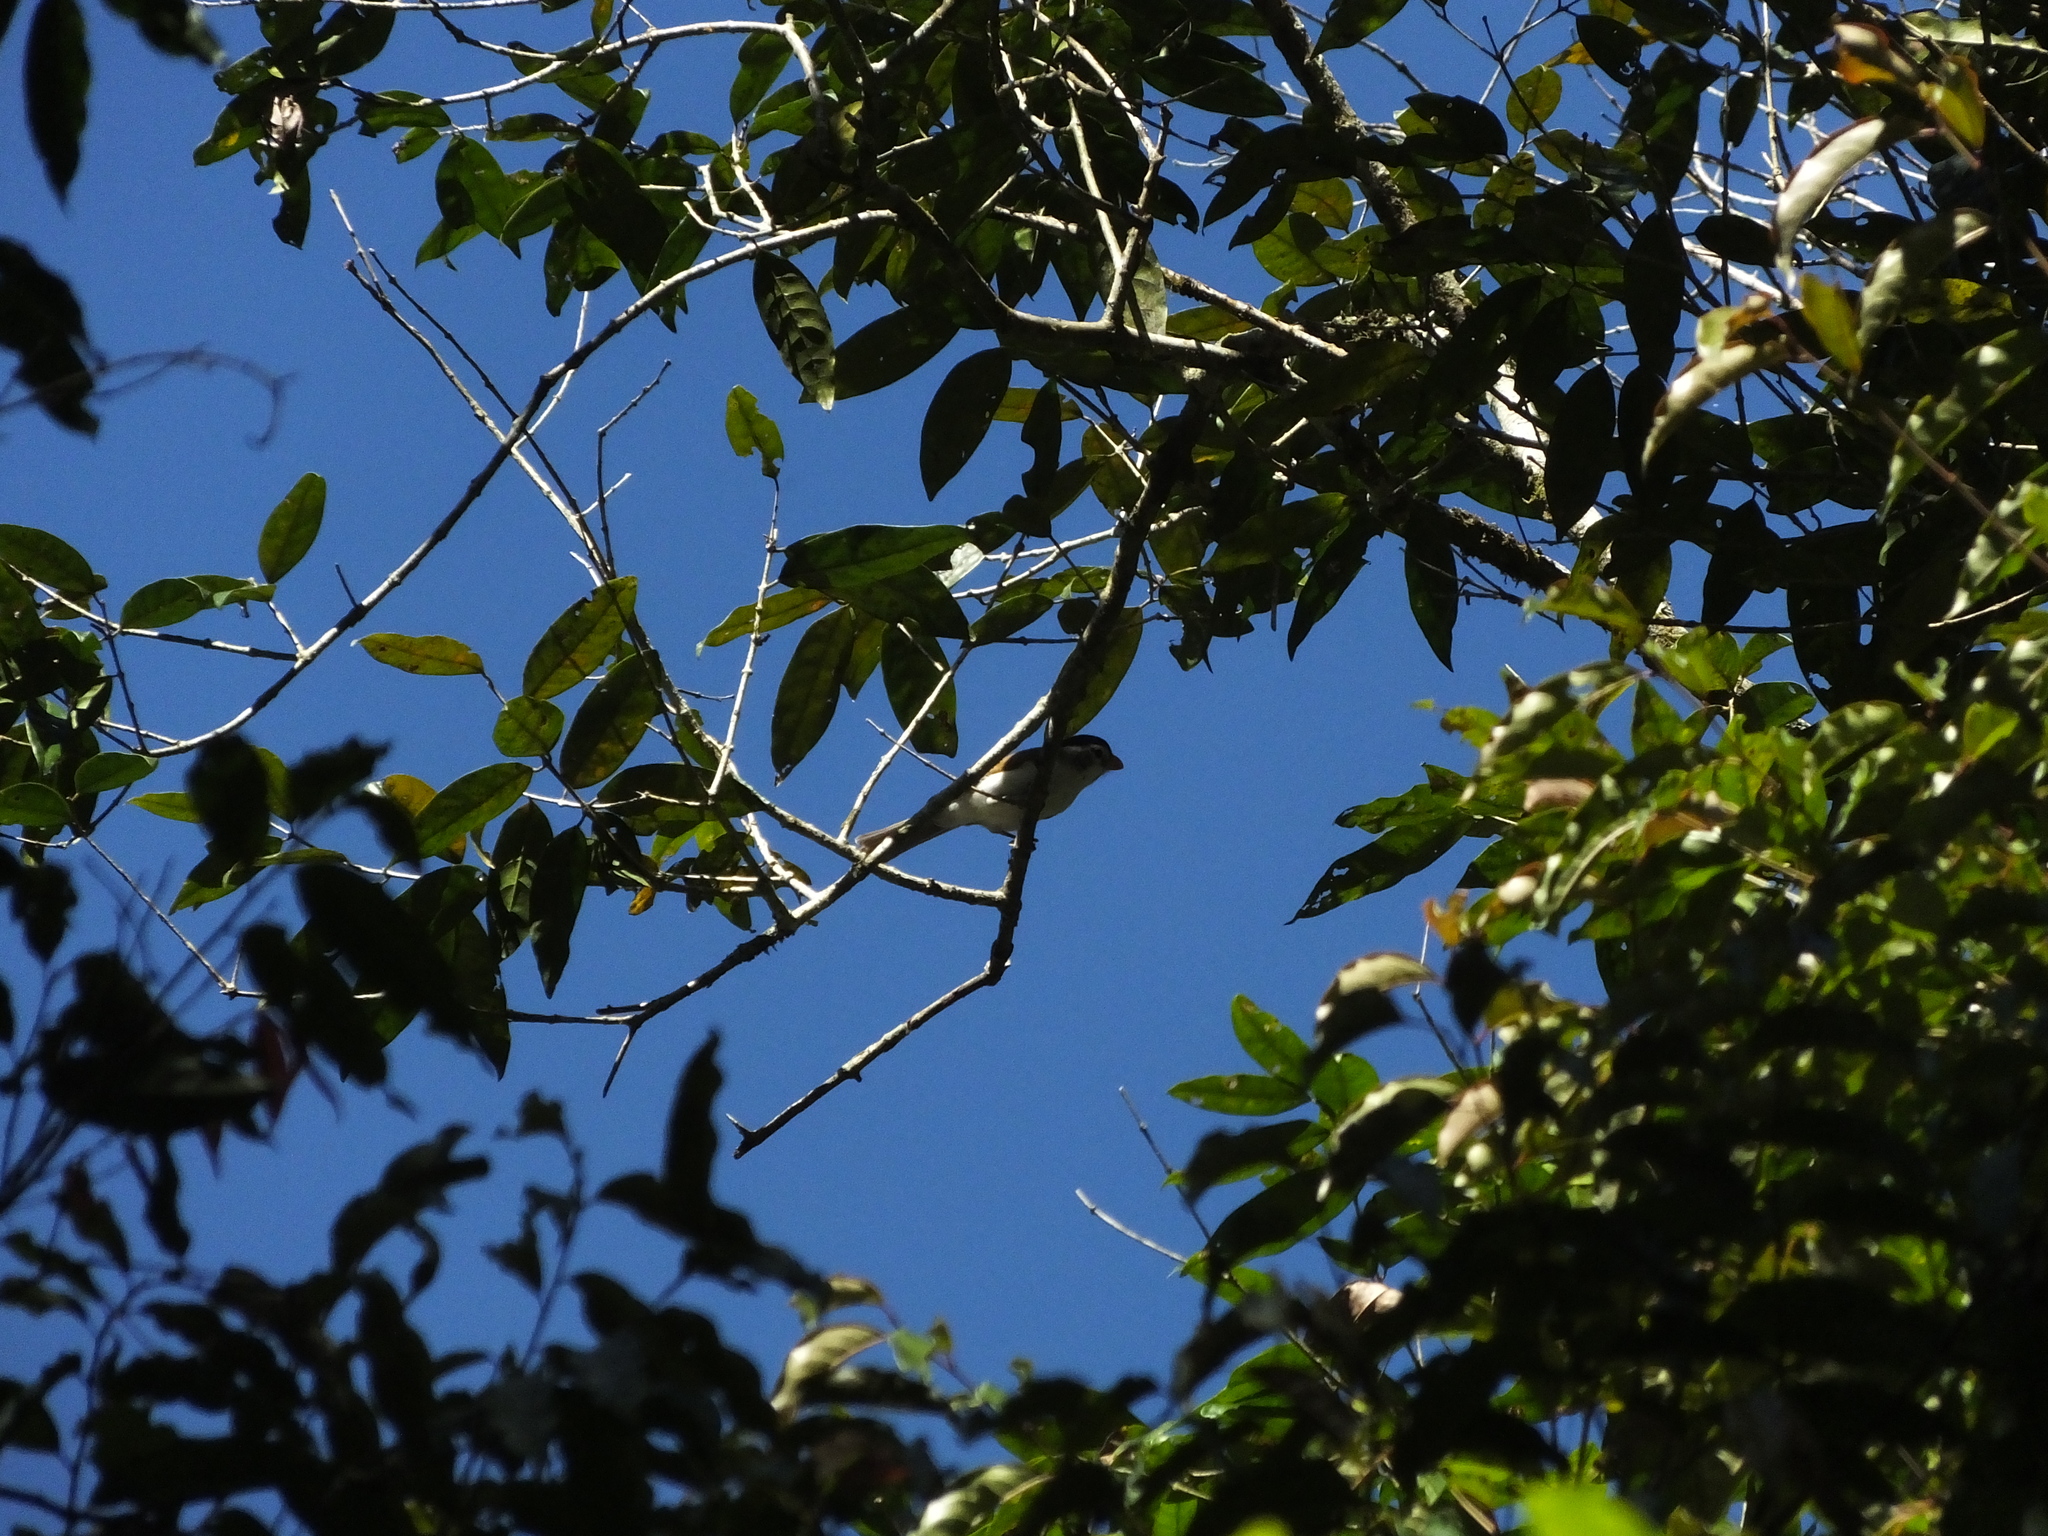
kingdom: Animalia
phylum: Chordata
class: Aves
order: Passeriformes
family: Sylviidae
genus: Psittiparus
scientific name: Psittiparus margaritae
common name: Black-headed parrotbill
